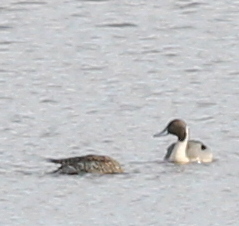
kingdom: Animalia
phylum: Chordata
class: Aves
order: Anseriformes
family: Anatidae
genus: Anas
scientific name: Anas acuta
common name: Northern pintail
